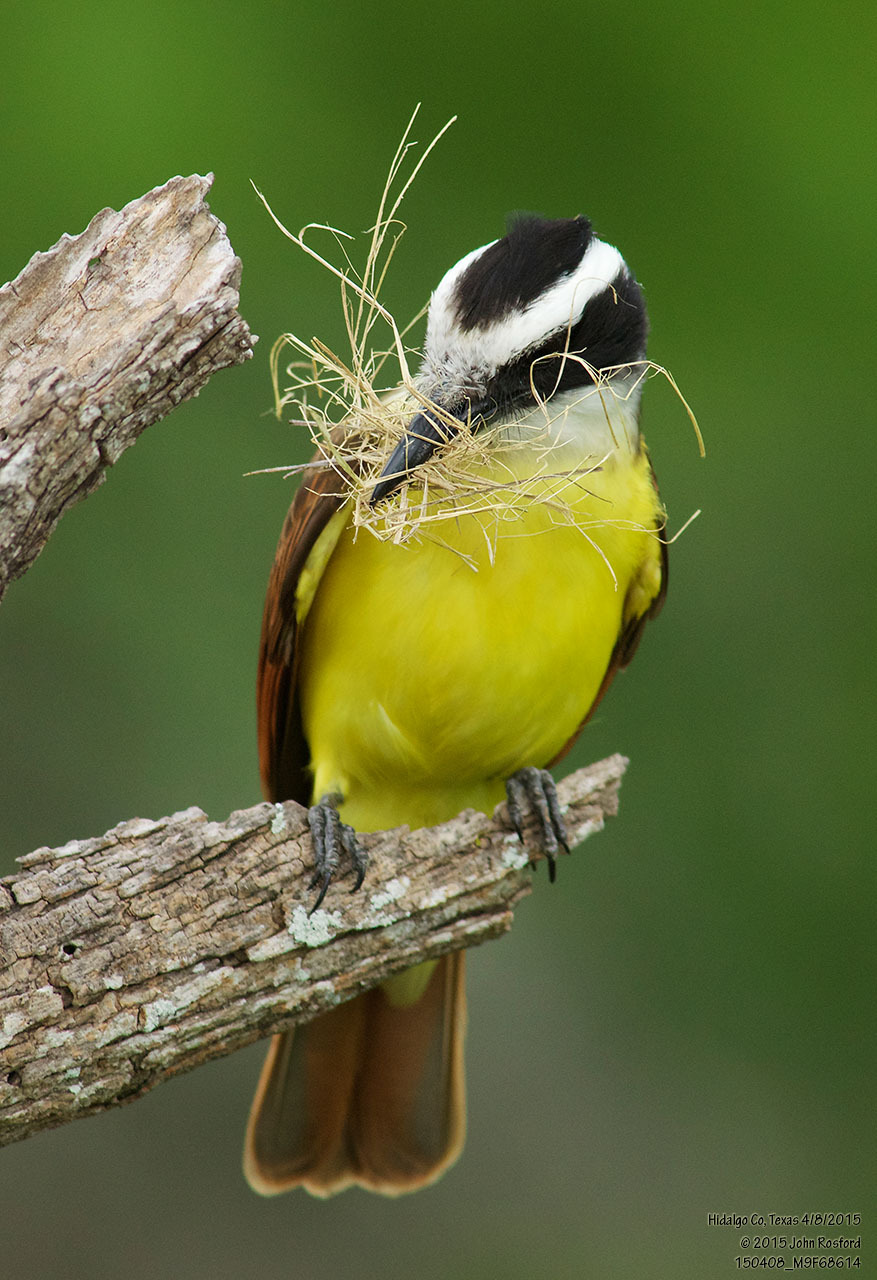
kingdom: Animalia
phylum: Chordata
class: Aves
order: Passeriformes
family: Tyrannidae
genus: Pitangus
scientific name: Pitangus sulphuratus
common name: Great kiskadee
